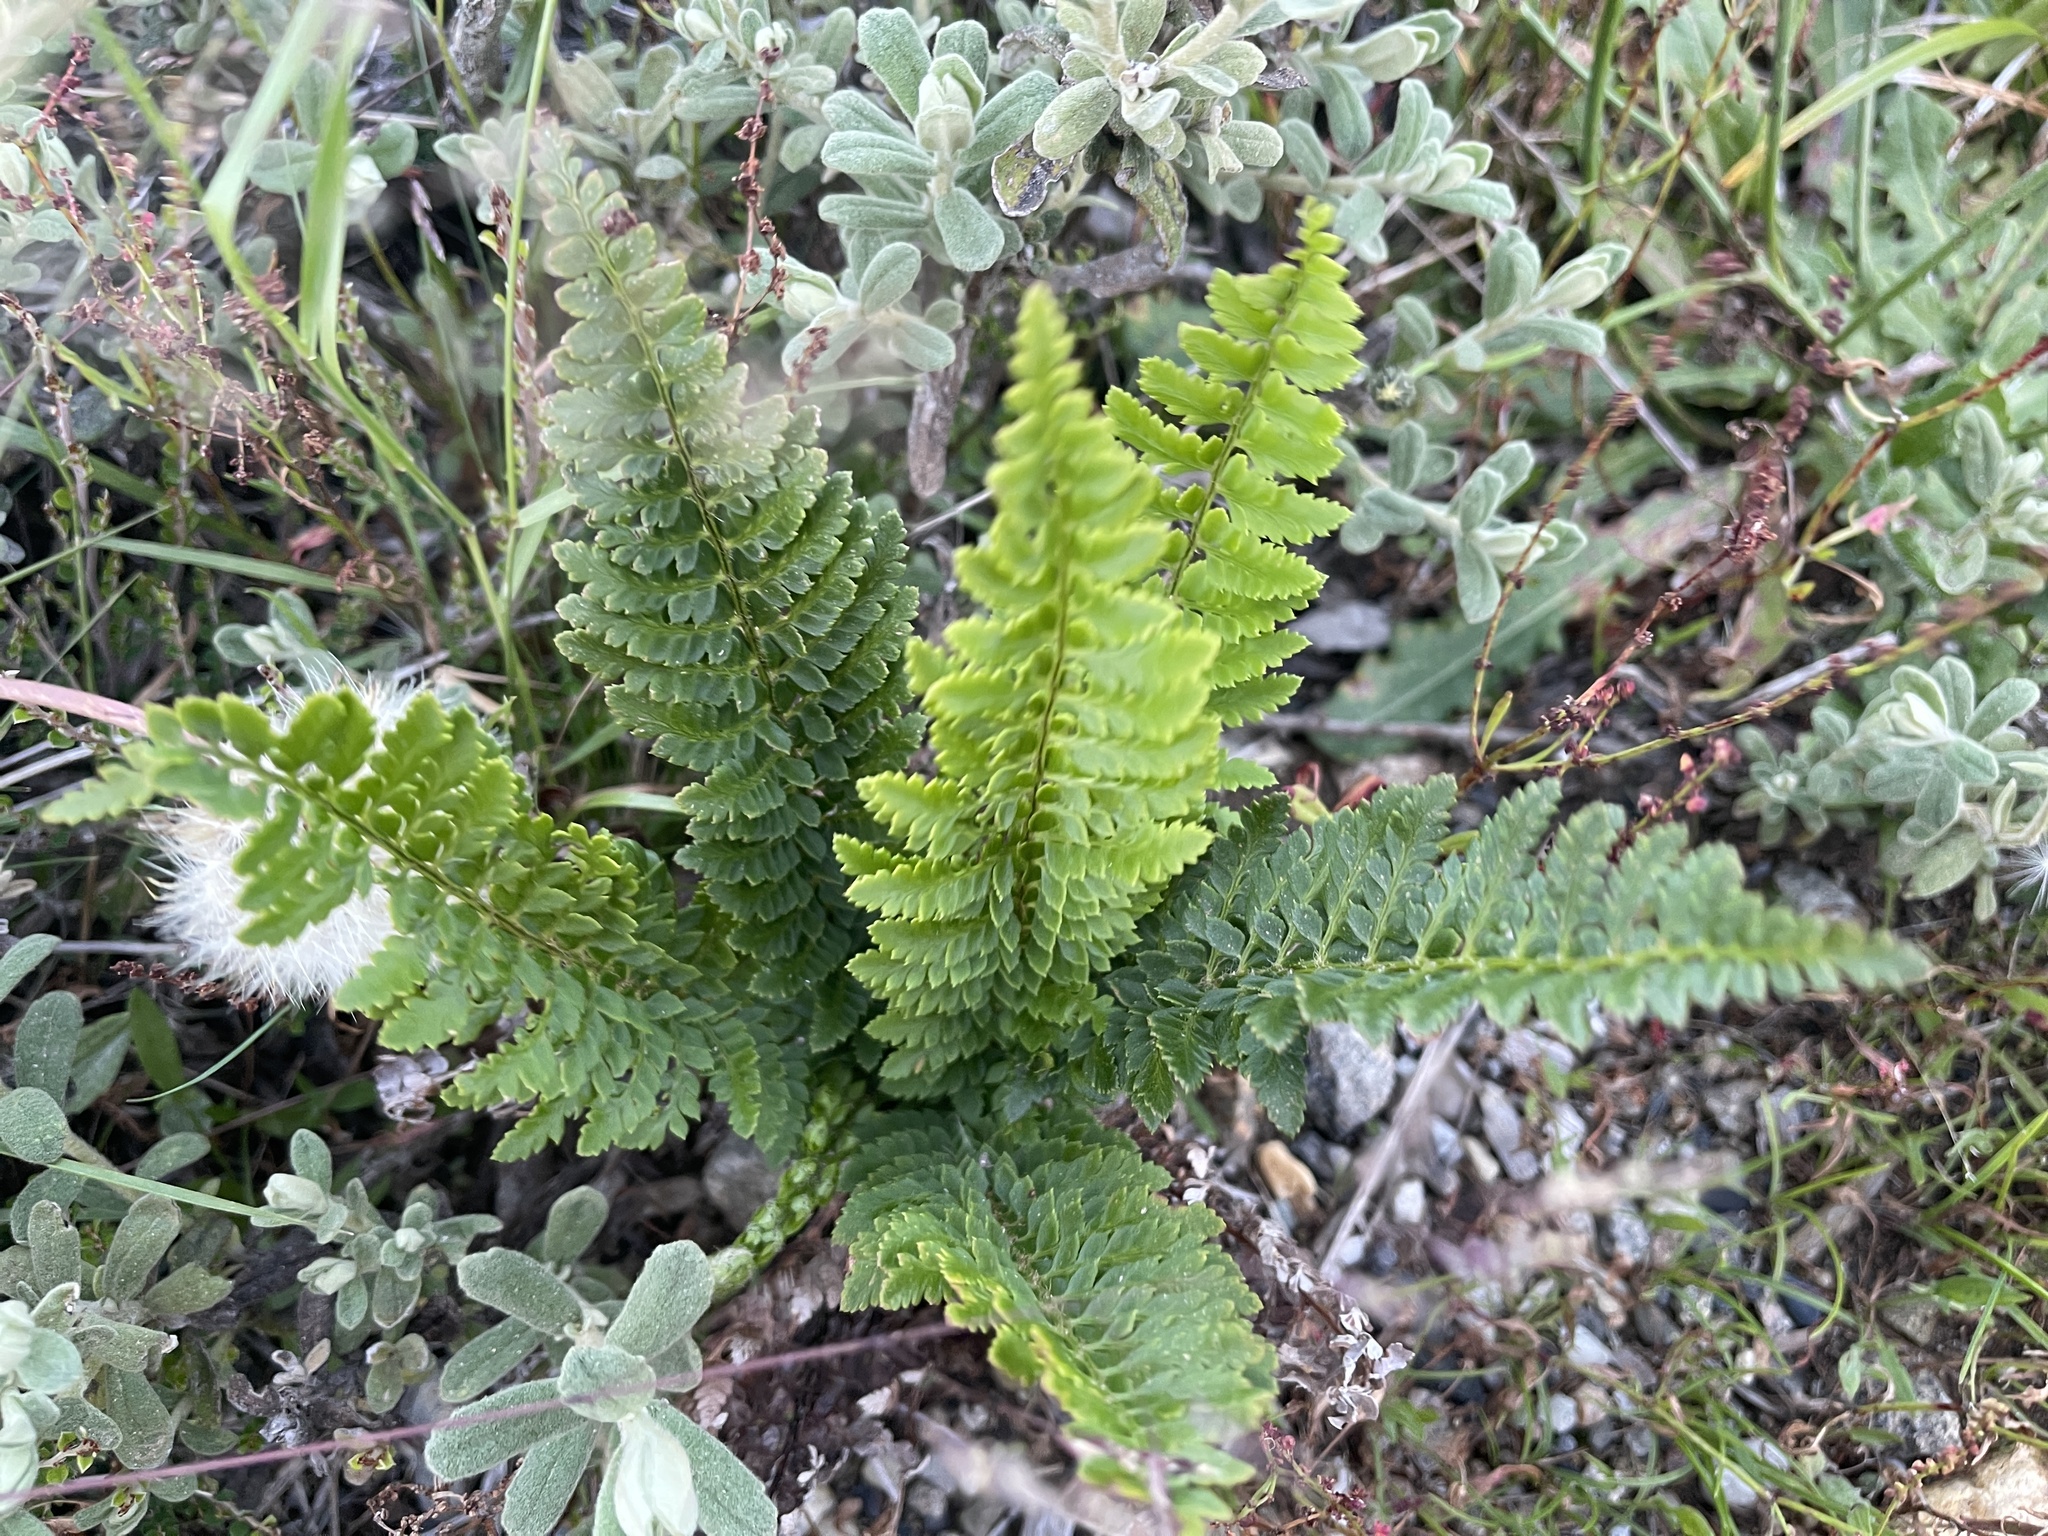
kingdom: Plantae
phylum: Tracheophyta
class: Polypodiopsida
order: Polypodiales
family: Dryopteridaceae
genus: Polystichum
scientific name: Polystichum proliferum
